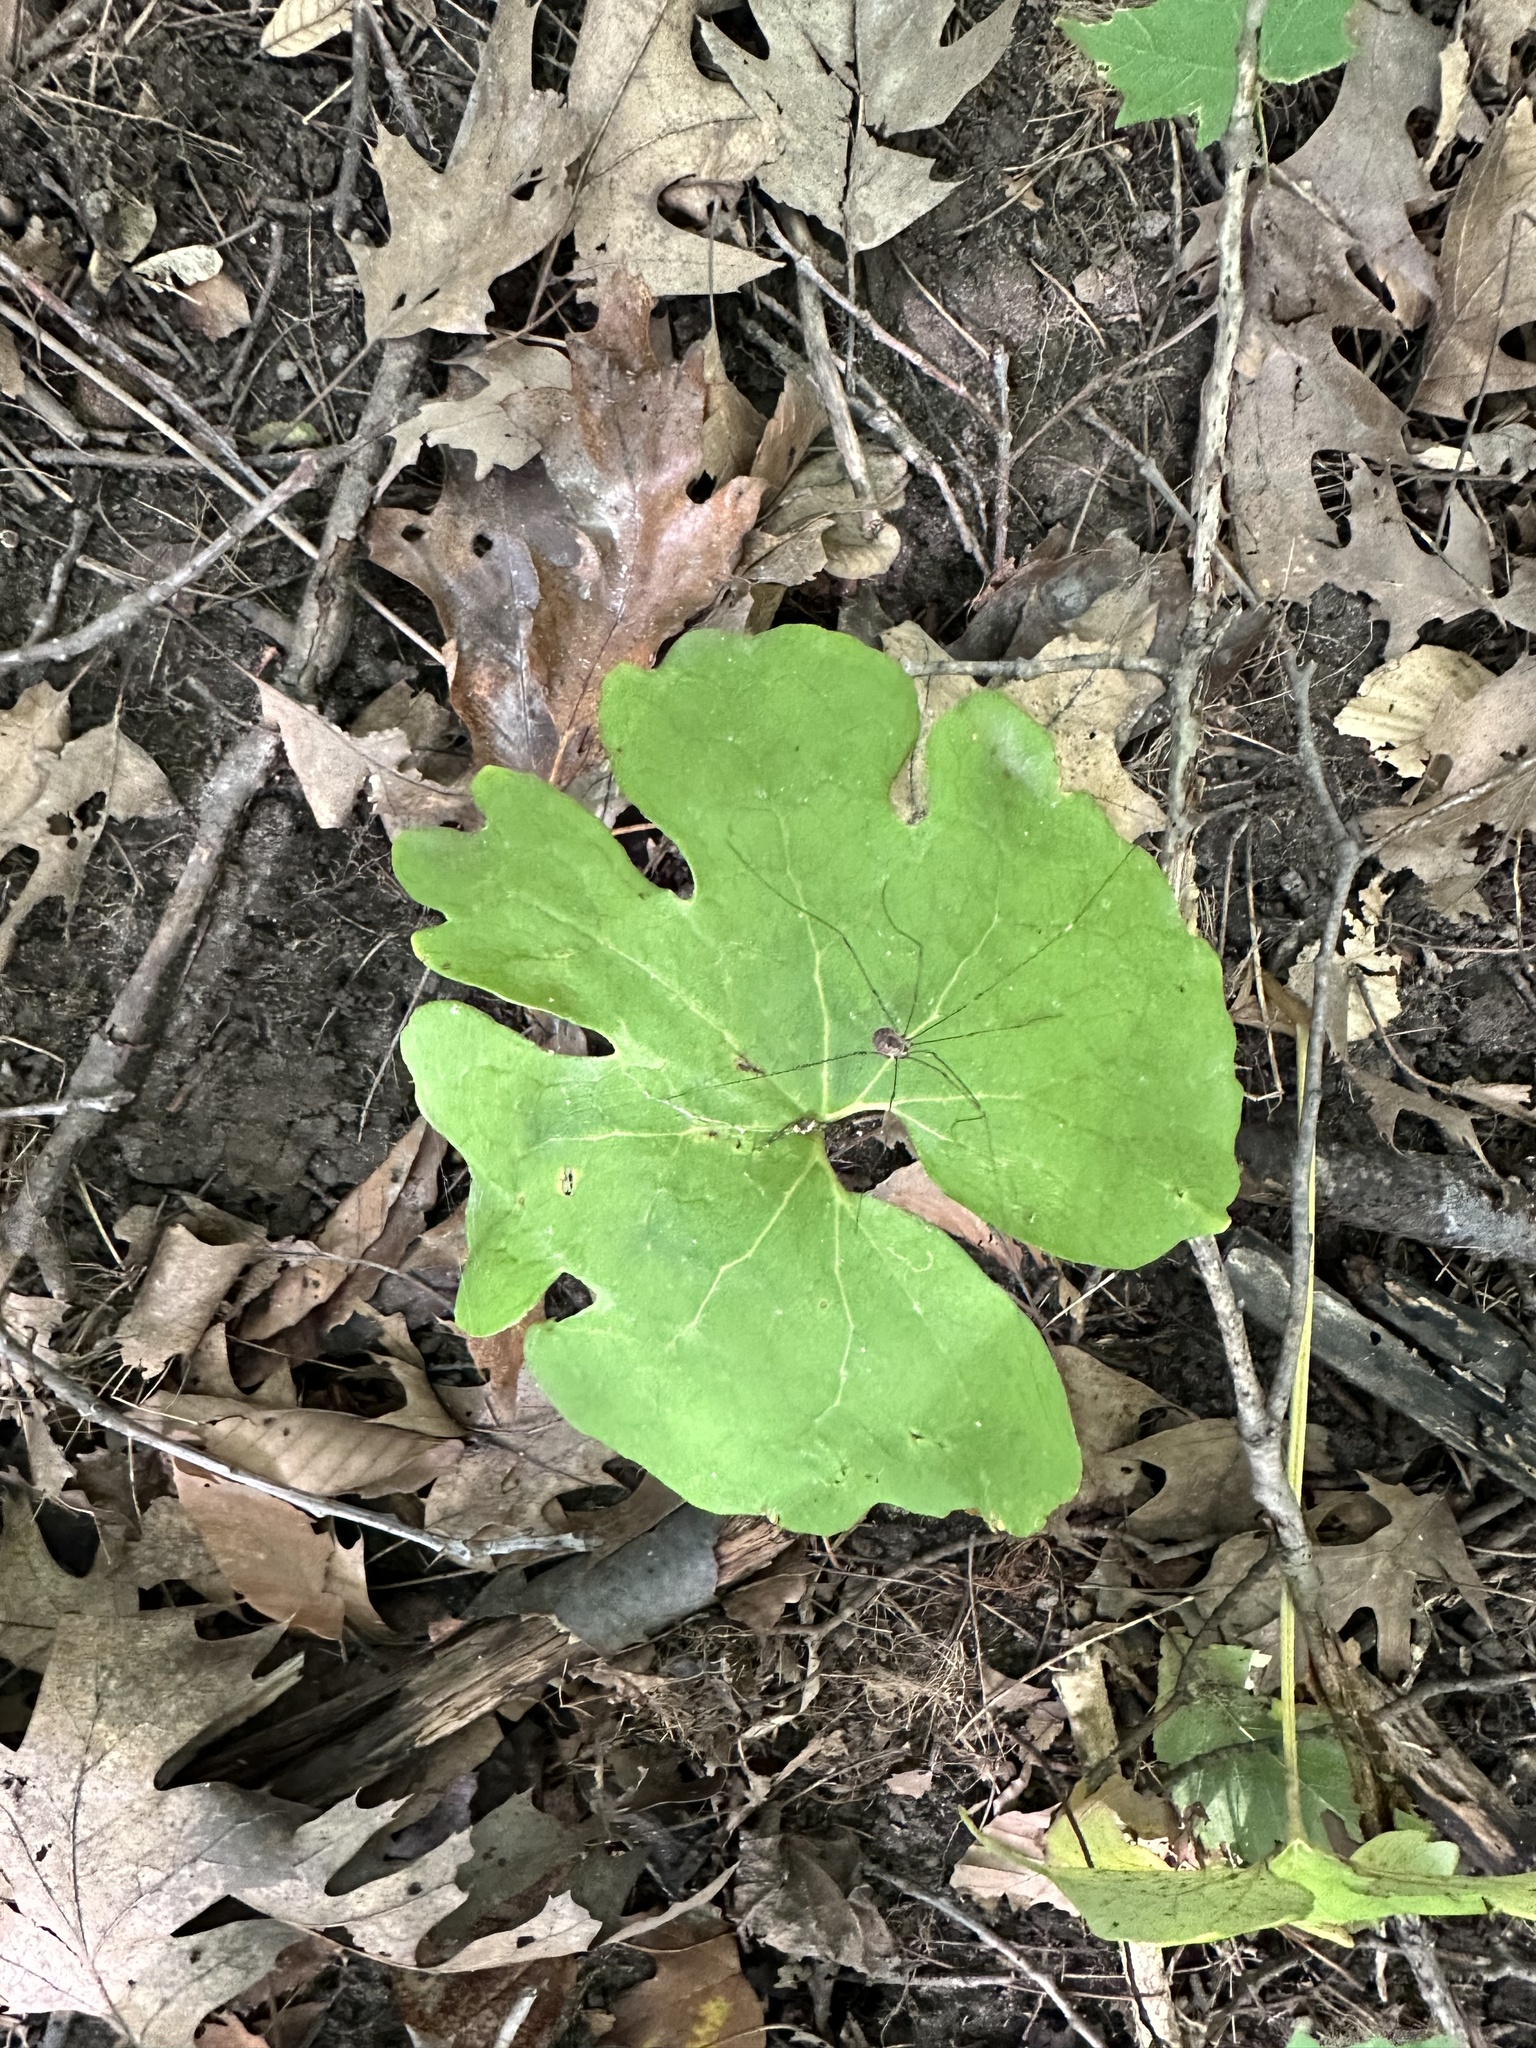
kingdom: Plantae
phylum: Tracheophyta
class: Magnoliopsida
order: Ranunculales
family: Papaveraceae
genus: Sanguinaria
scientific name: Sanguinaria canadensis
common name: Bloodroot
